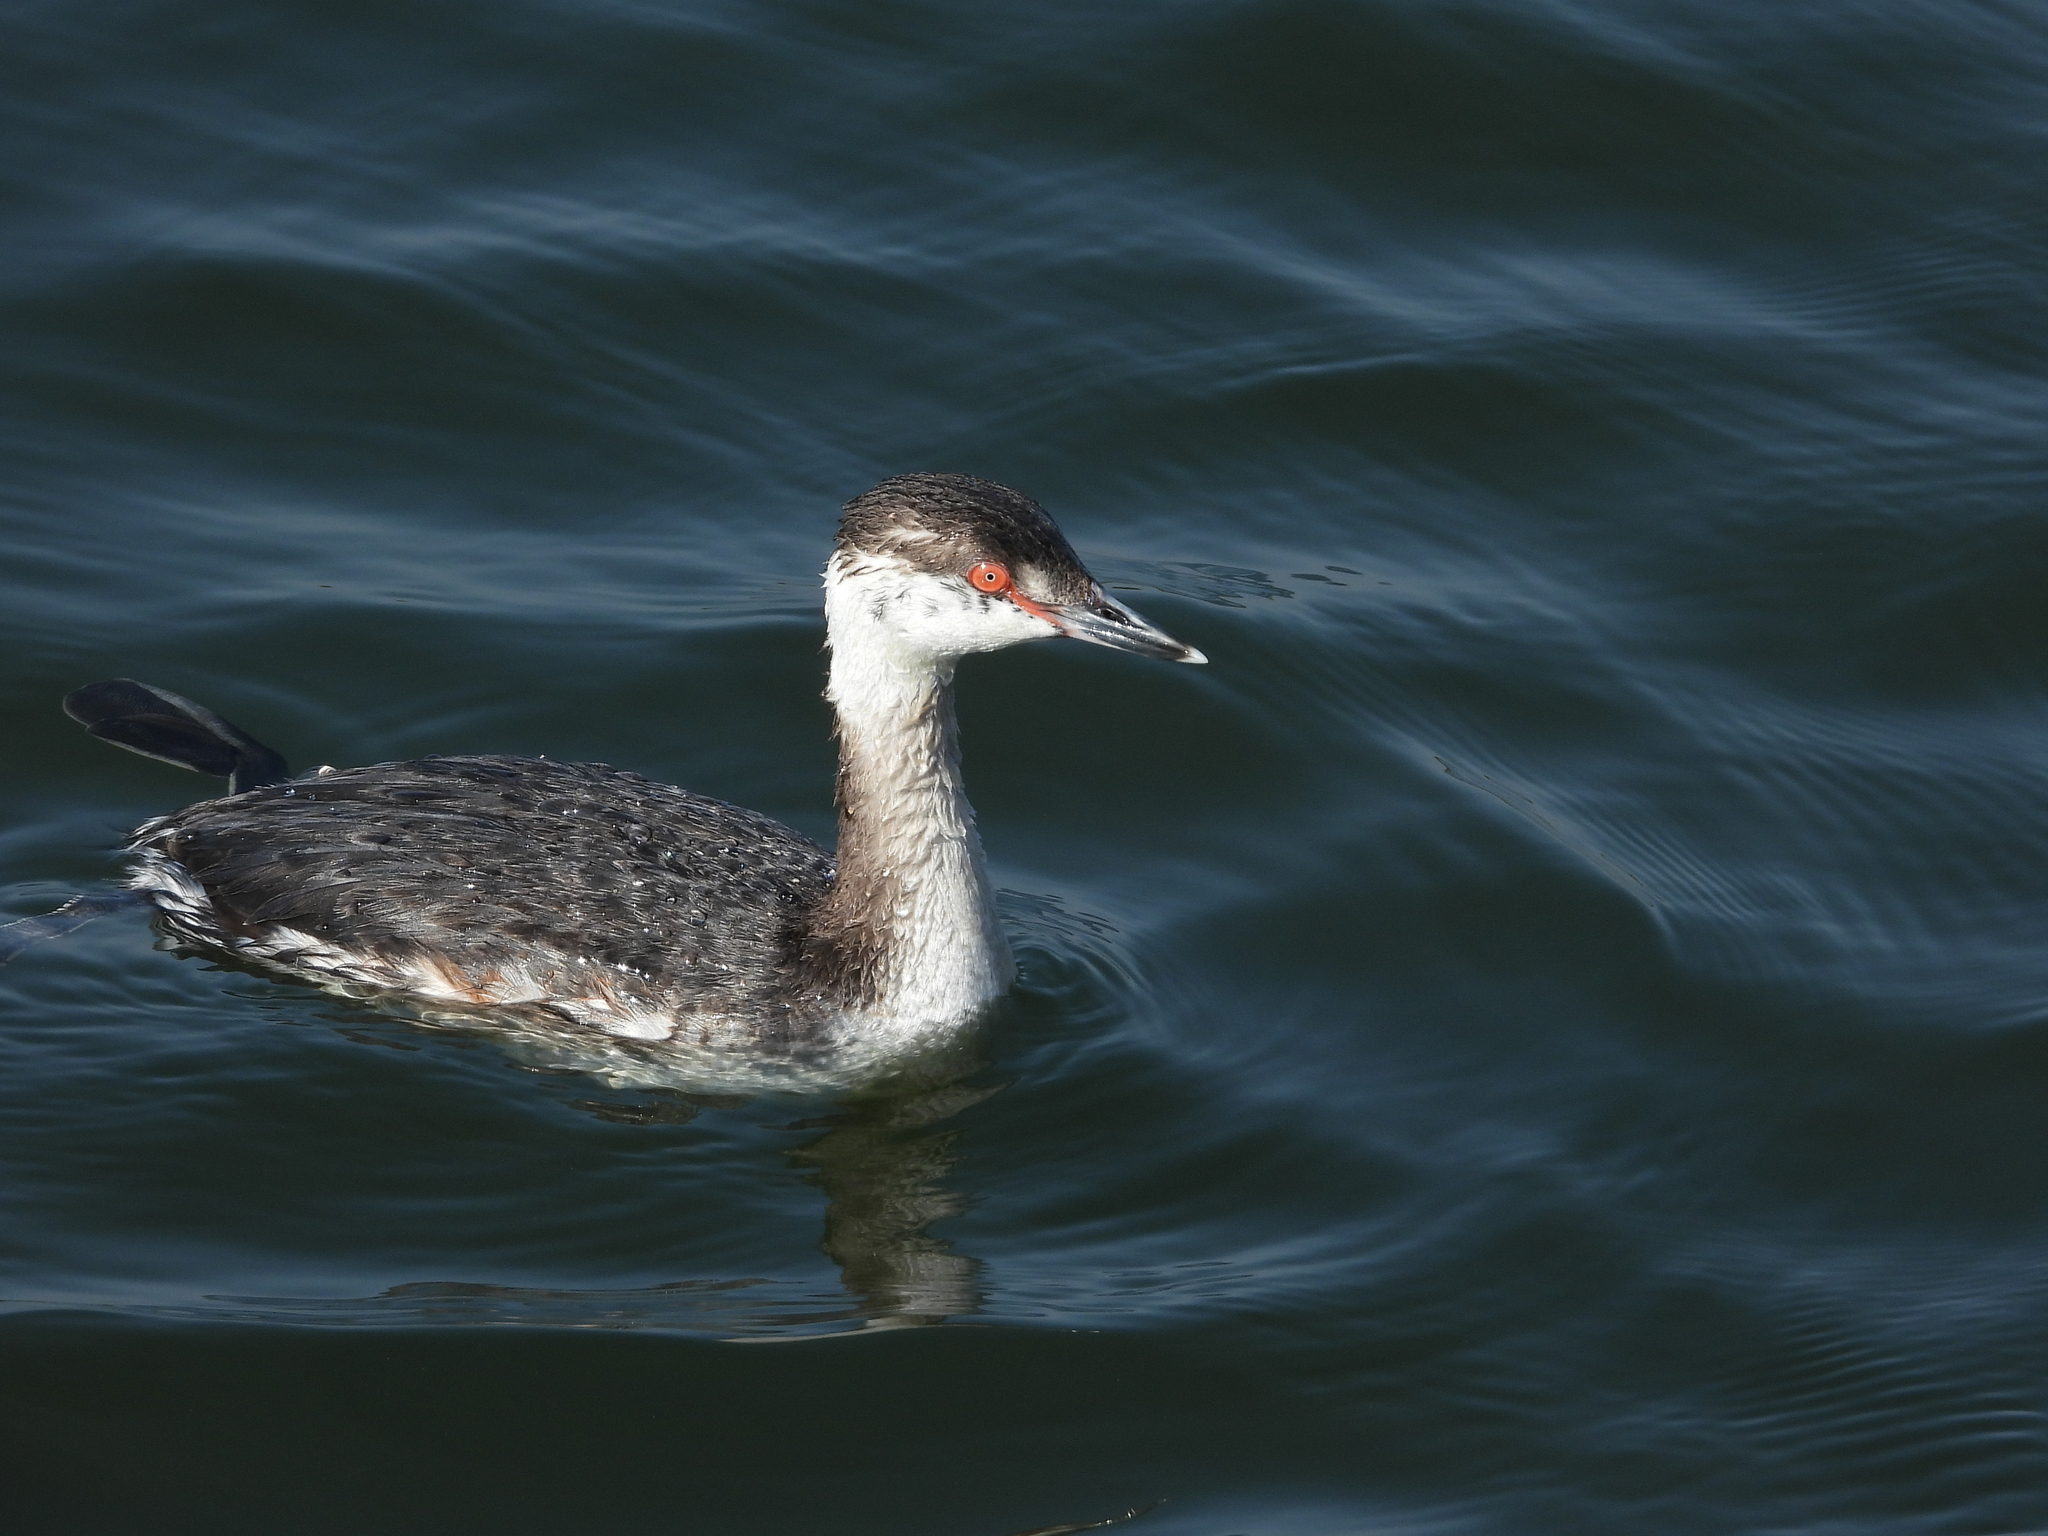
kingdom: Animalia
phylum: Chordata
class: Aves
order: Podicipediformes
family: Podicipedidae
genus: Podiceps
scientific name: Podiceps auritus
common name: Horned grebe
